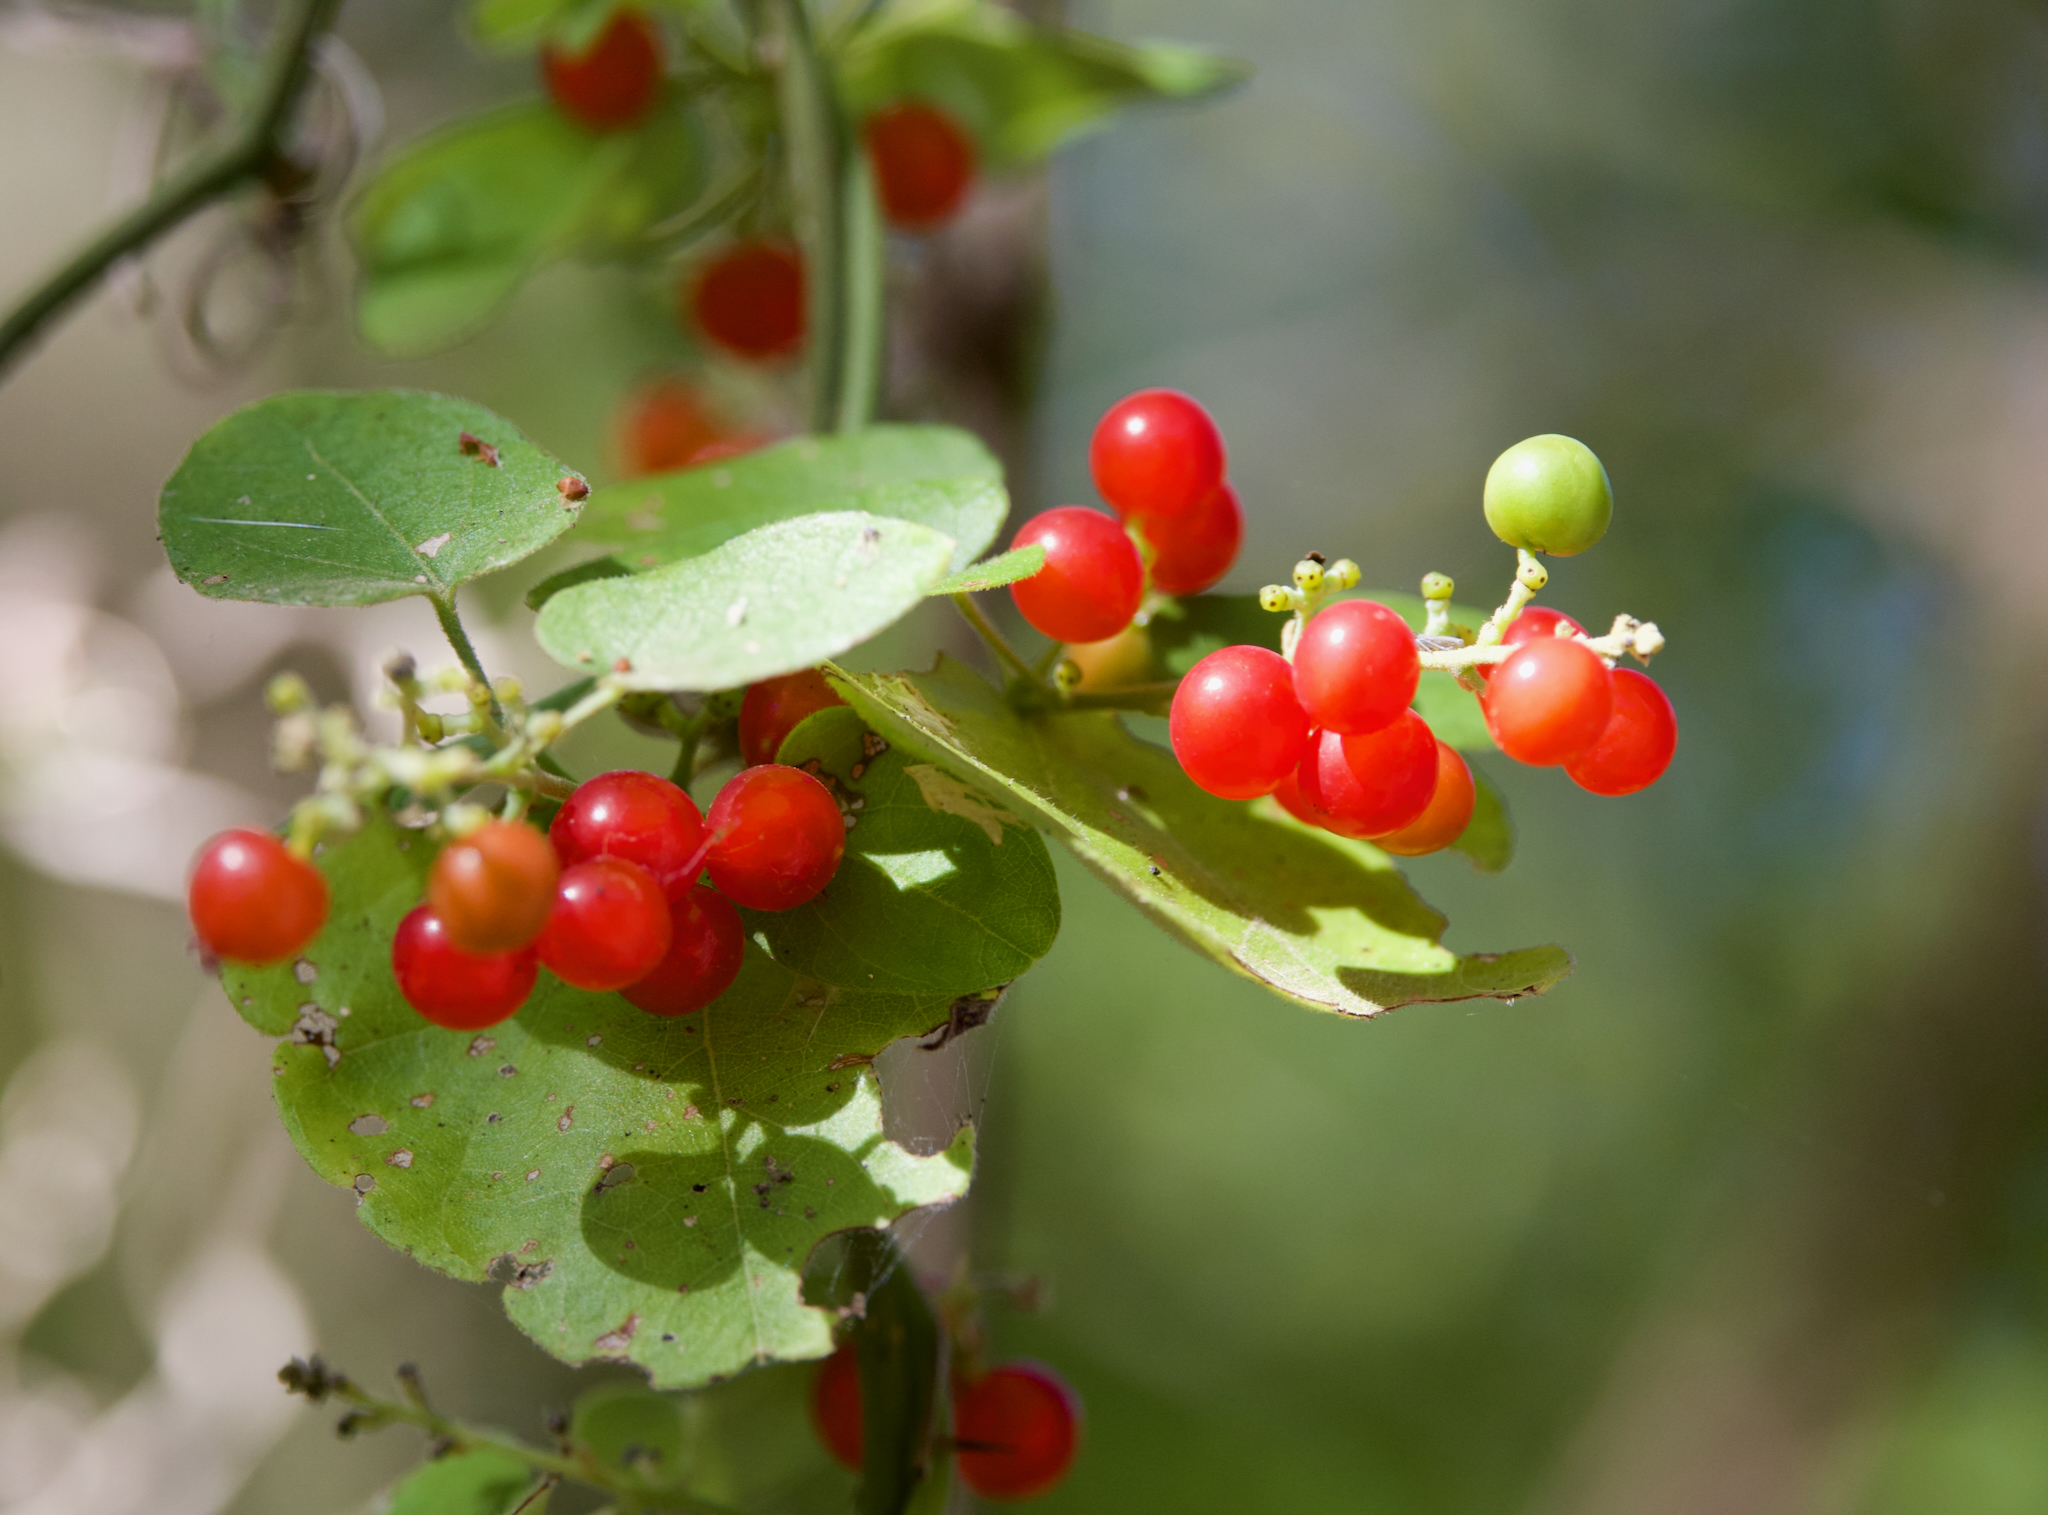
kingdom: Plantae
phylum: Tracheophyta
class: Magnoliopsida
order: Ranunculales
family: Menispermaceae
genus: Cocculus
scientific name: Cocculus carolinus
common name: Carolina moonseed
